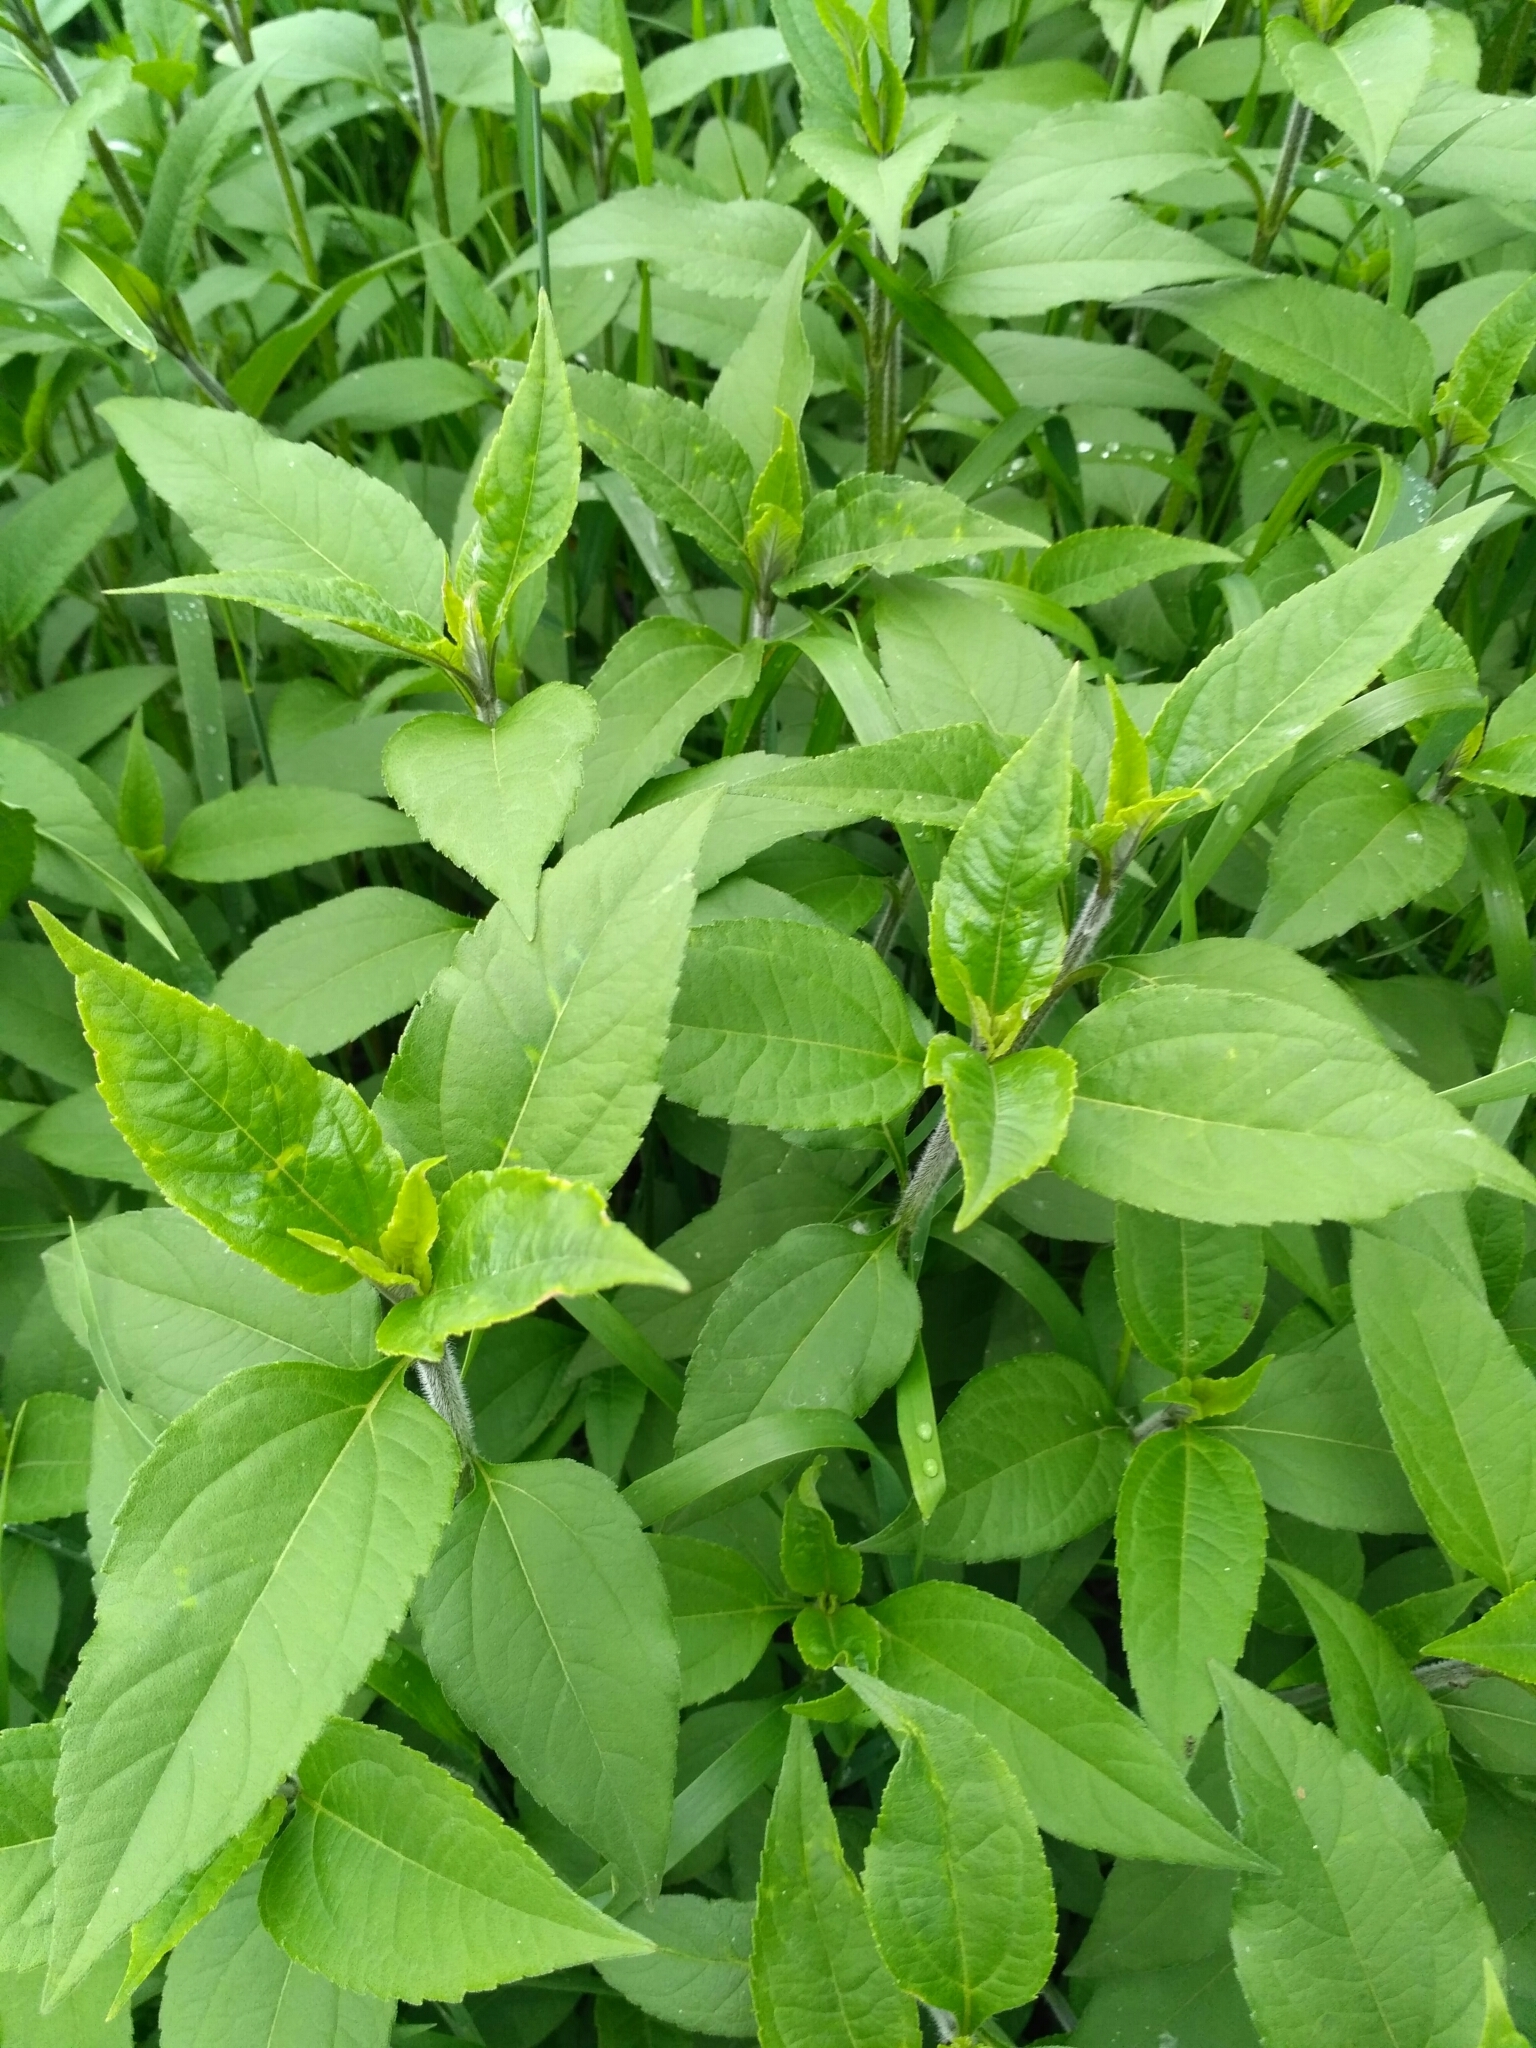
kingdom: Plantae
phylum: Tracheophyta
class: Magnoliopsida
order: Asterales
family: Asteraceae
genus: Helianthus
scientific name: Helianthus tuberosus
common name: Jerusalem artichoke
